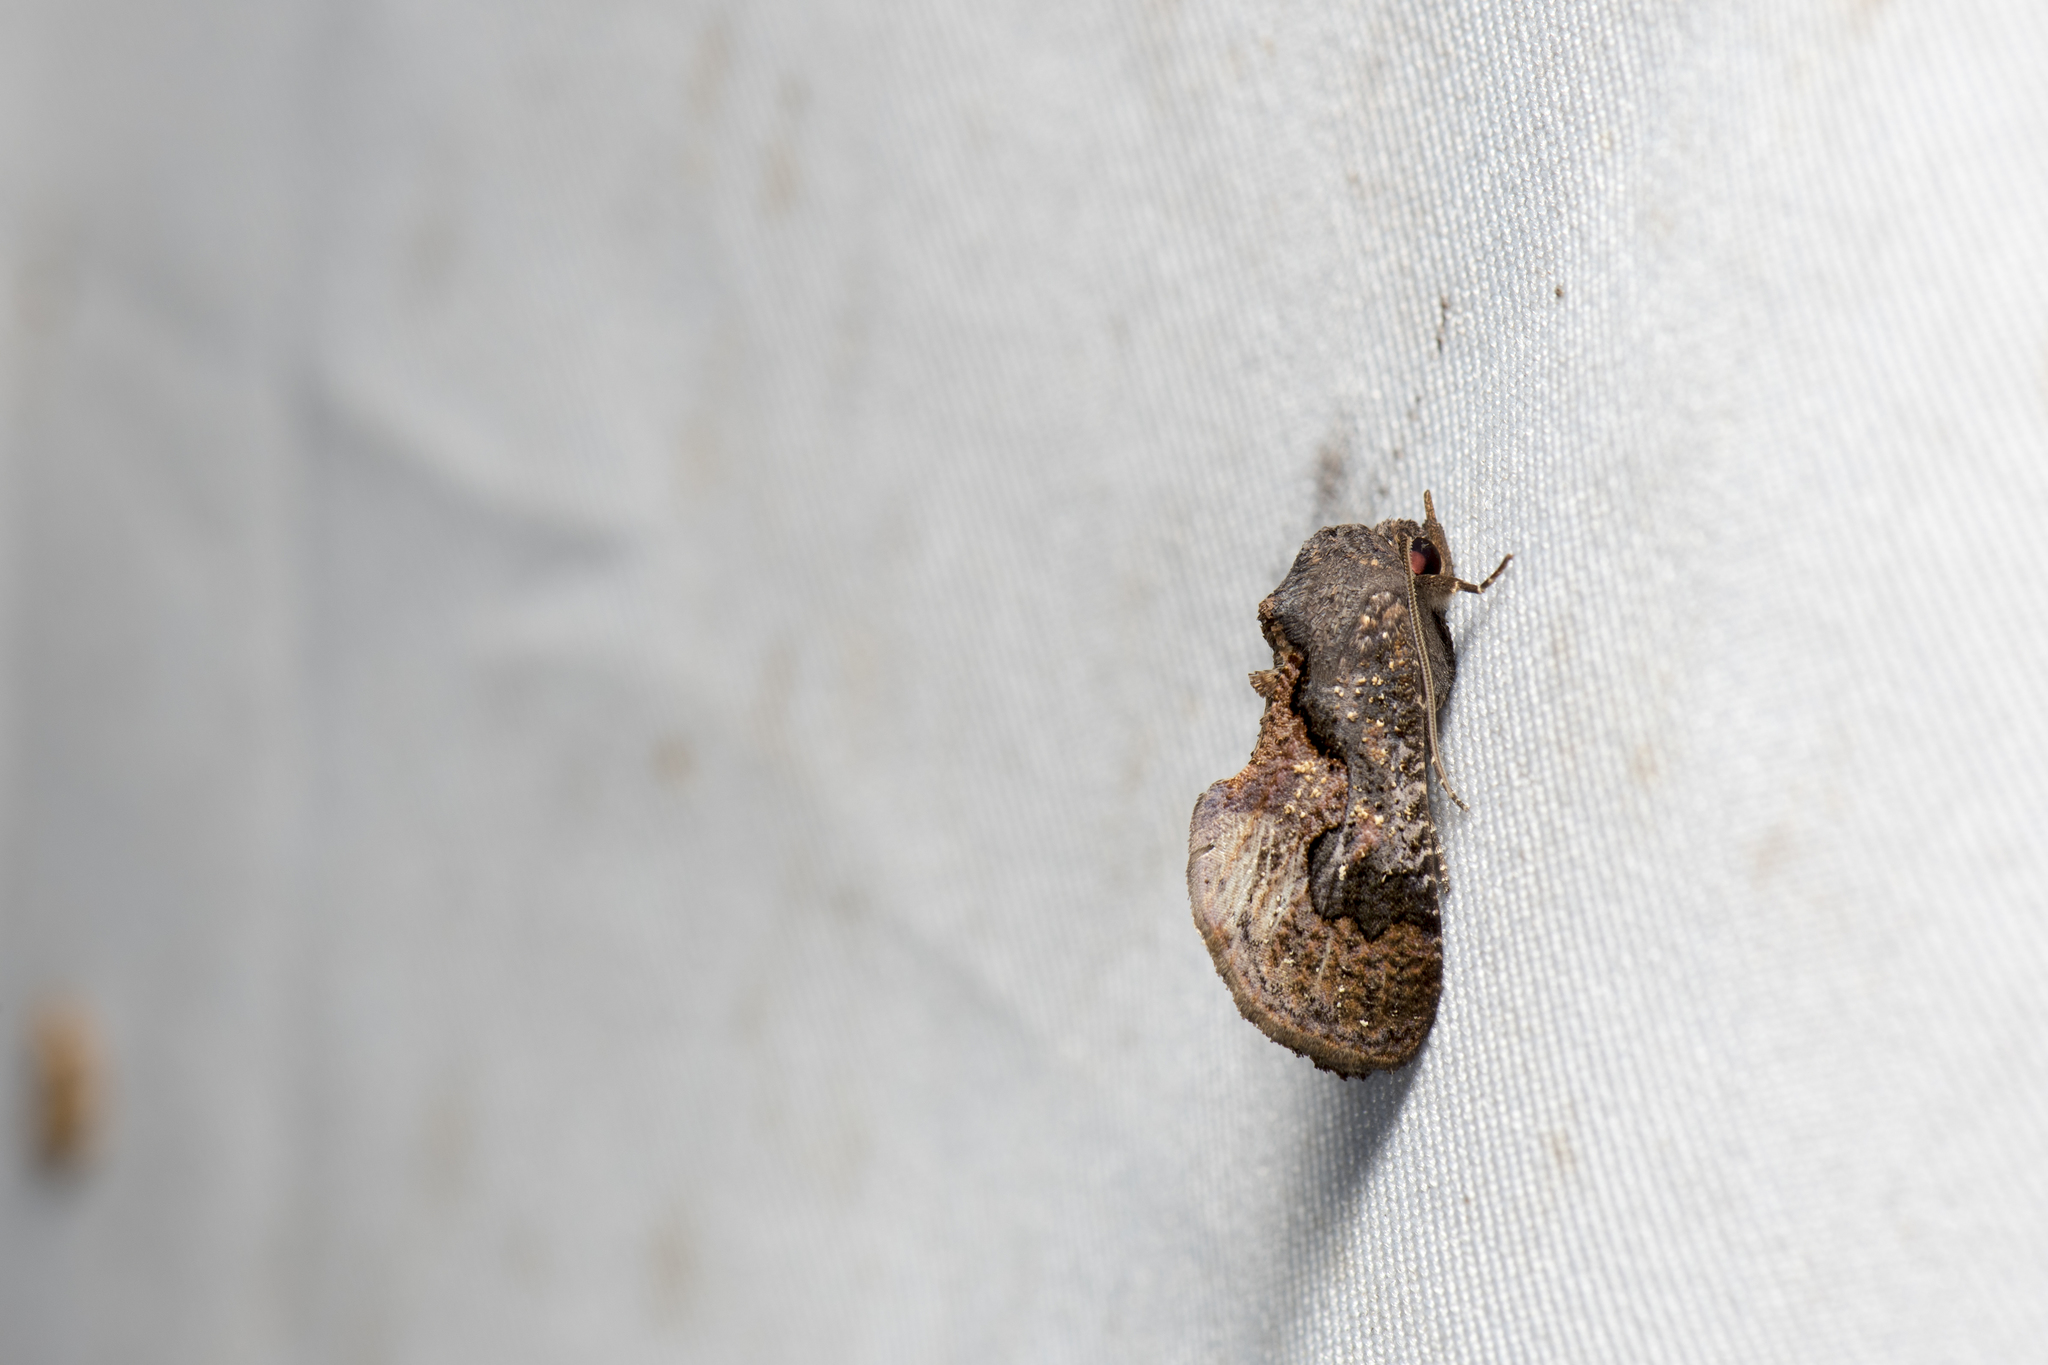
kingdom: Animalia
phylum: Arthropoda
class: Insecta
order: Lepidoptera
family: Erebidae
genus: Batracharta
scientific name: Batracharta divisa
